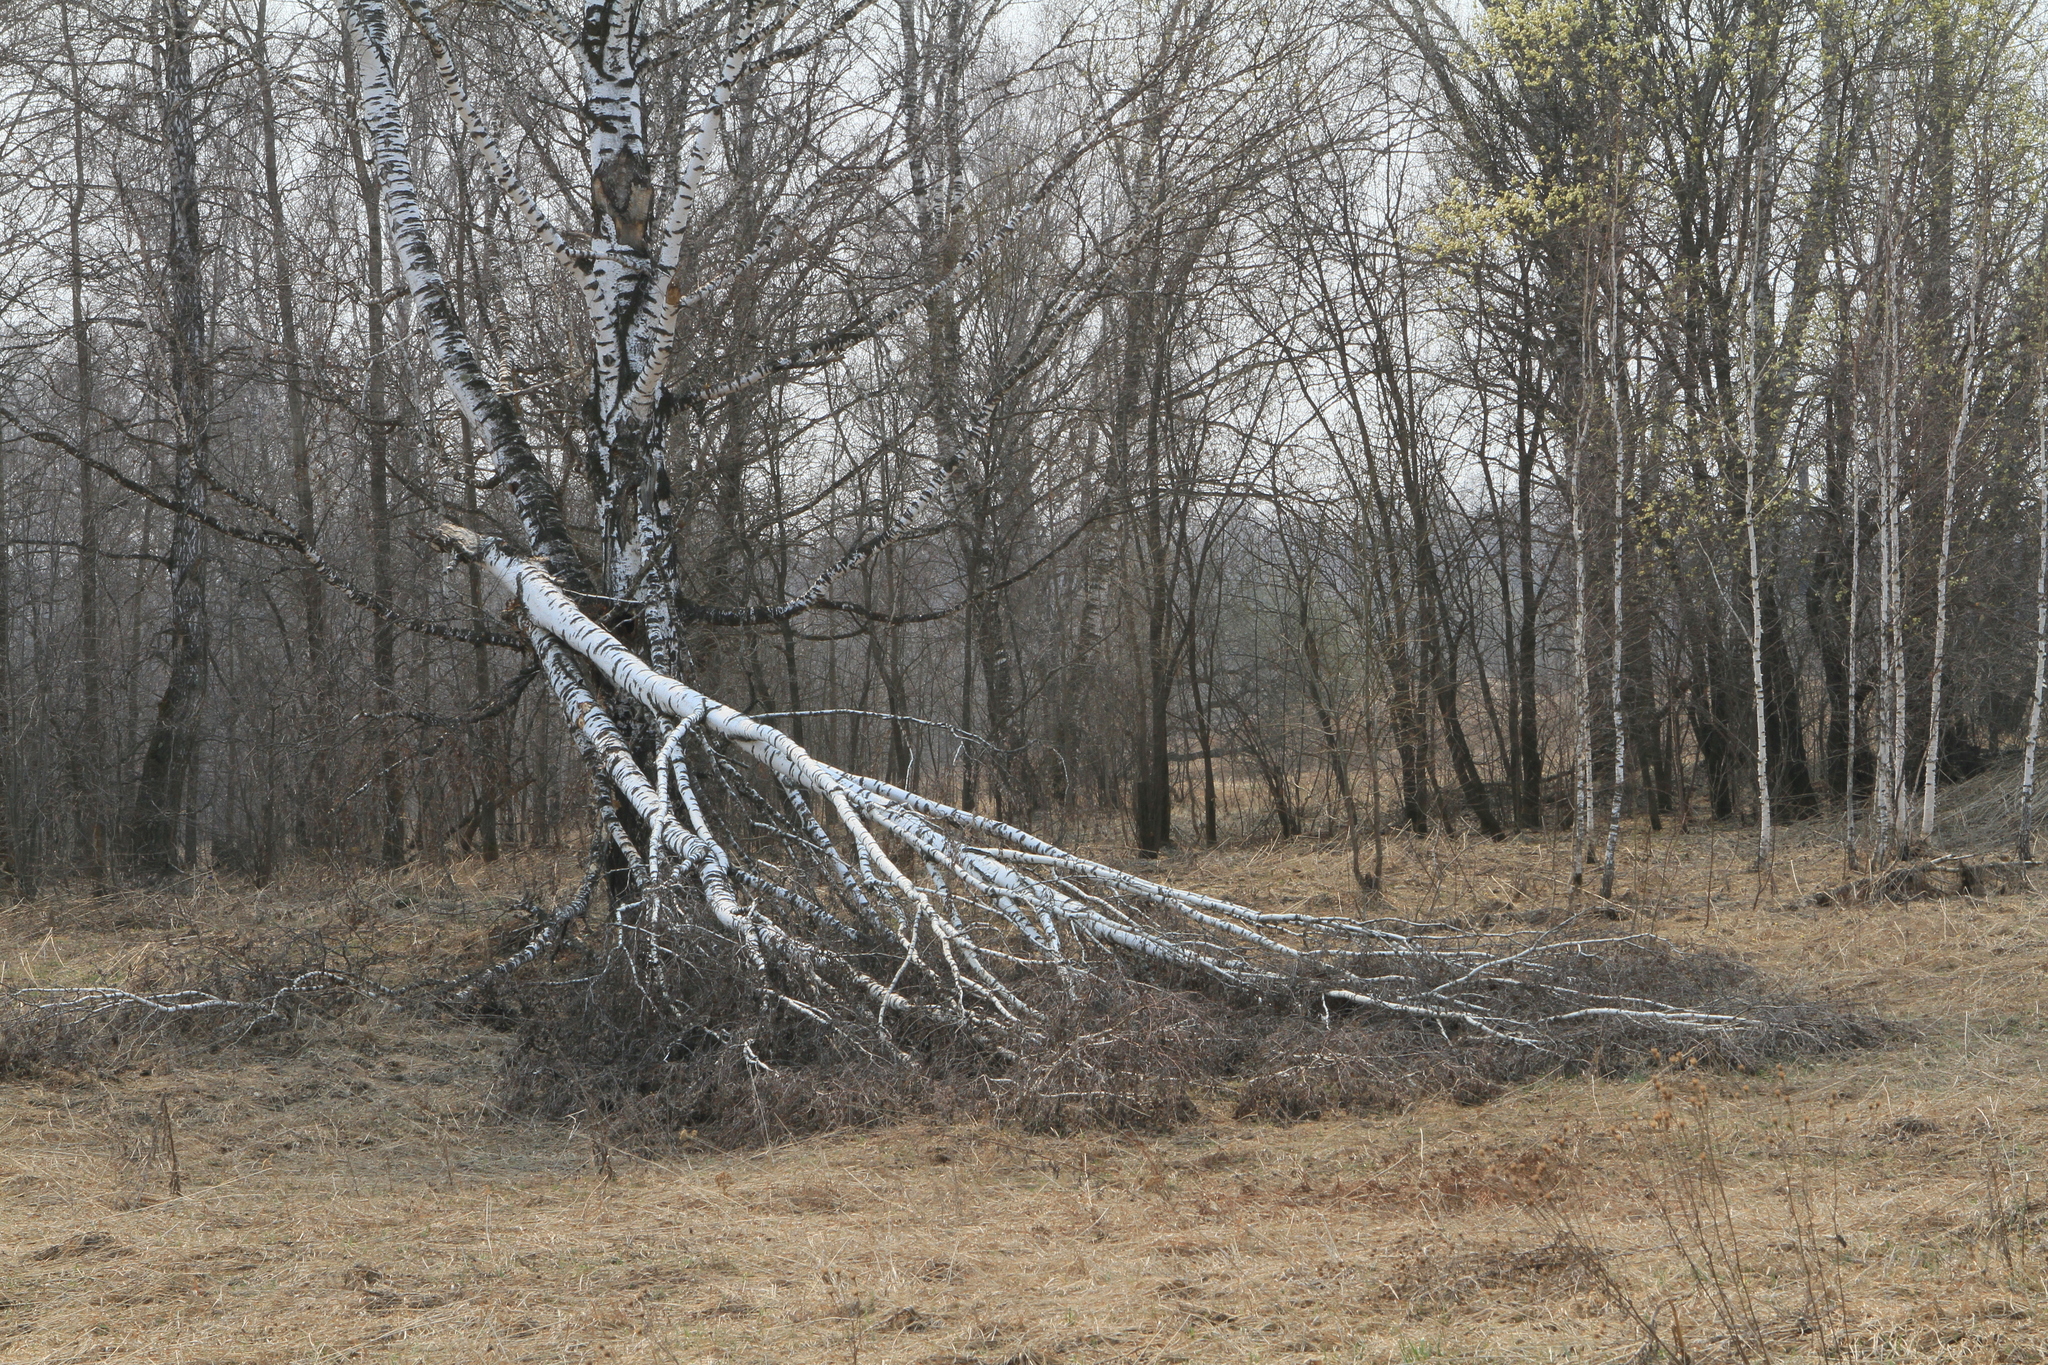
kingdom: Plantae
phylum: Tracheophyta
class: Magnoliopsida
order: Fagales
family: Betulaceae
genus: Betula
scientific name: Betula pendula
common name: Silver birch
